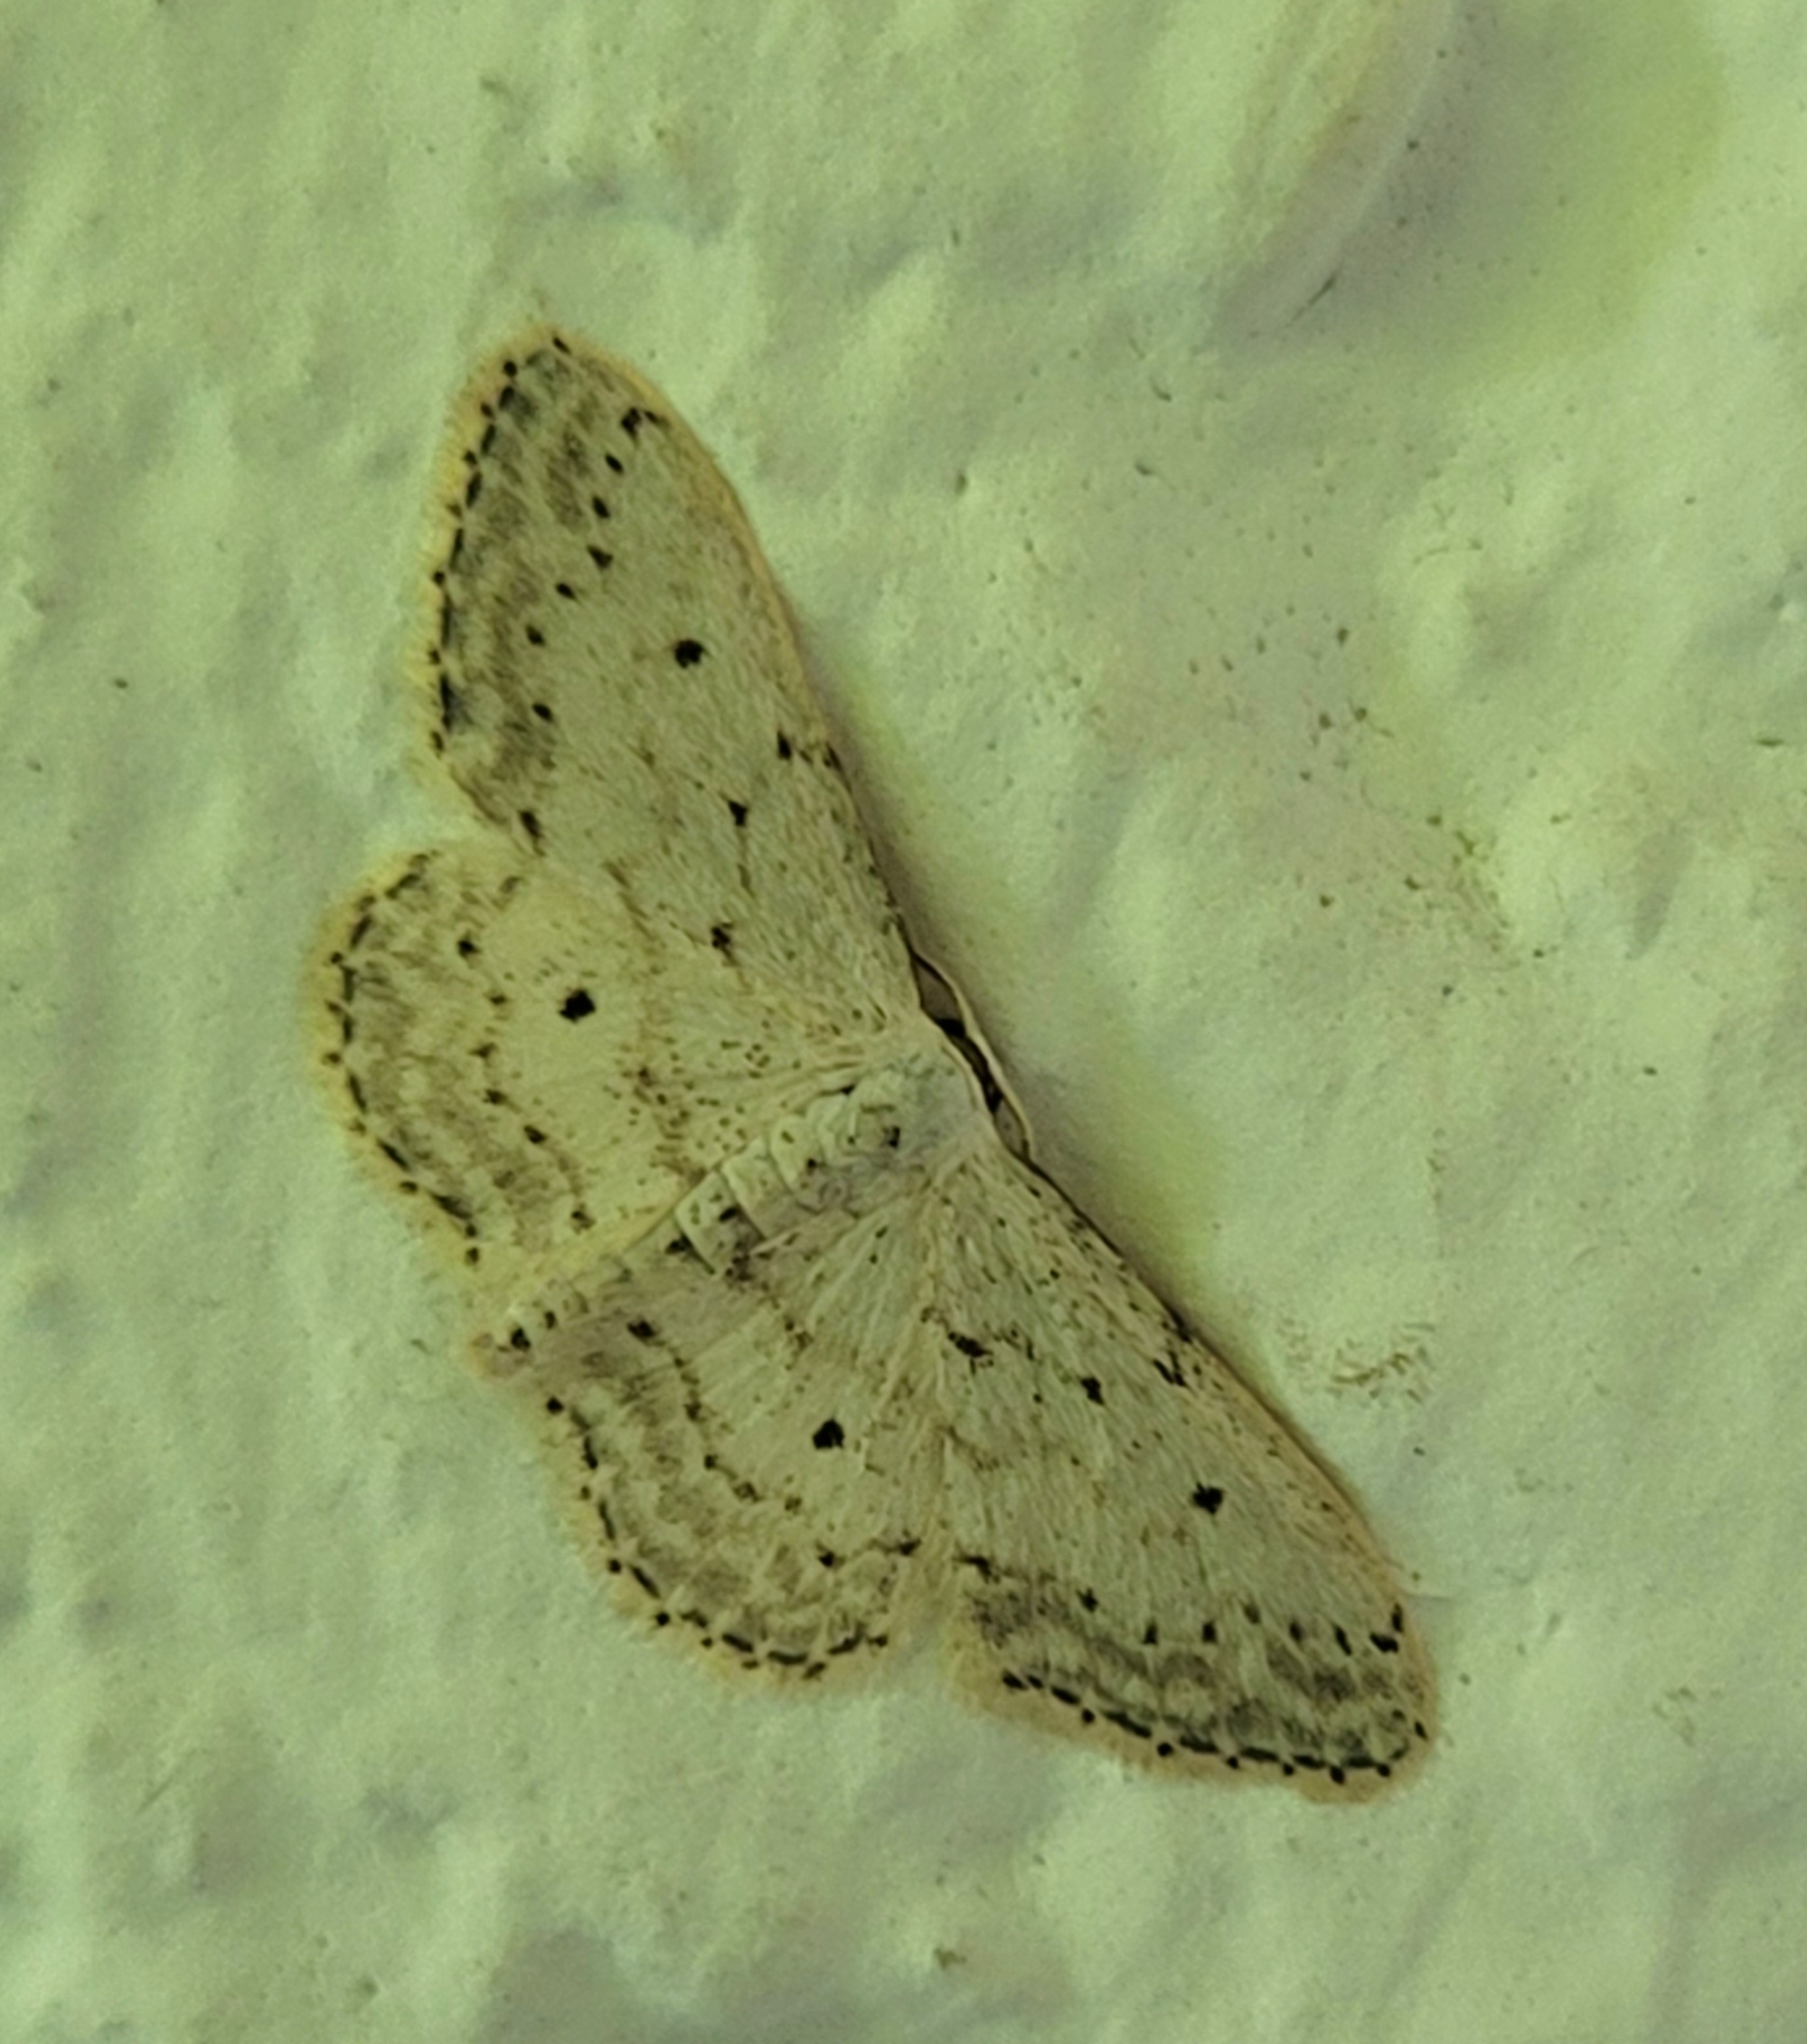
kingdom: Animalia
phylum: Arthropoda
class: Insecta
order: Lepidoptera
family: Geometridae
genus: Idaea
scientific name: Idaea seriata
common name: Small dusty wave
